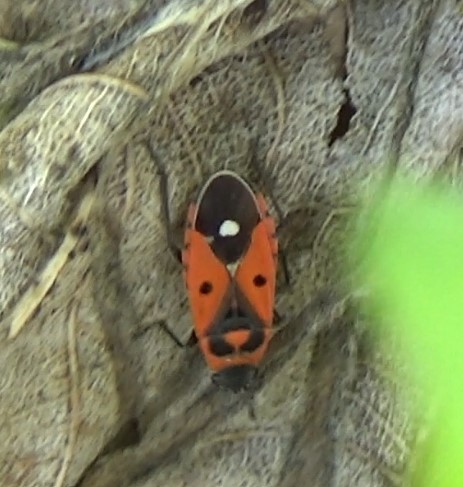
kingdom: Animalia
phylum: Arthropoda
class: Insecta
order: Hemiptera
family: Lygaeidae
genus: Melanocoryphus
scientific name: Melanocoryphus albomaculatus
